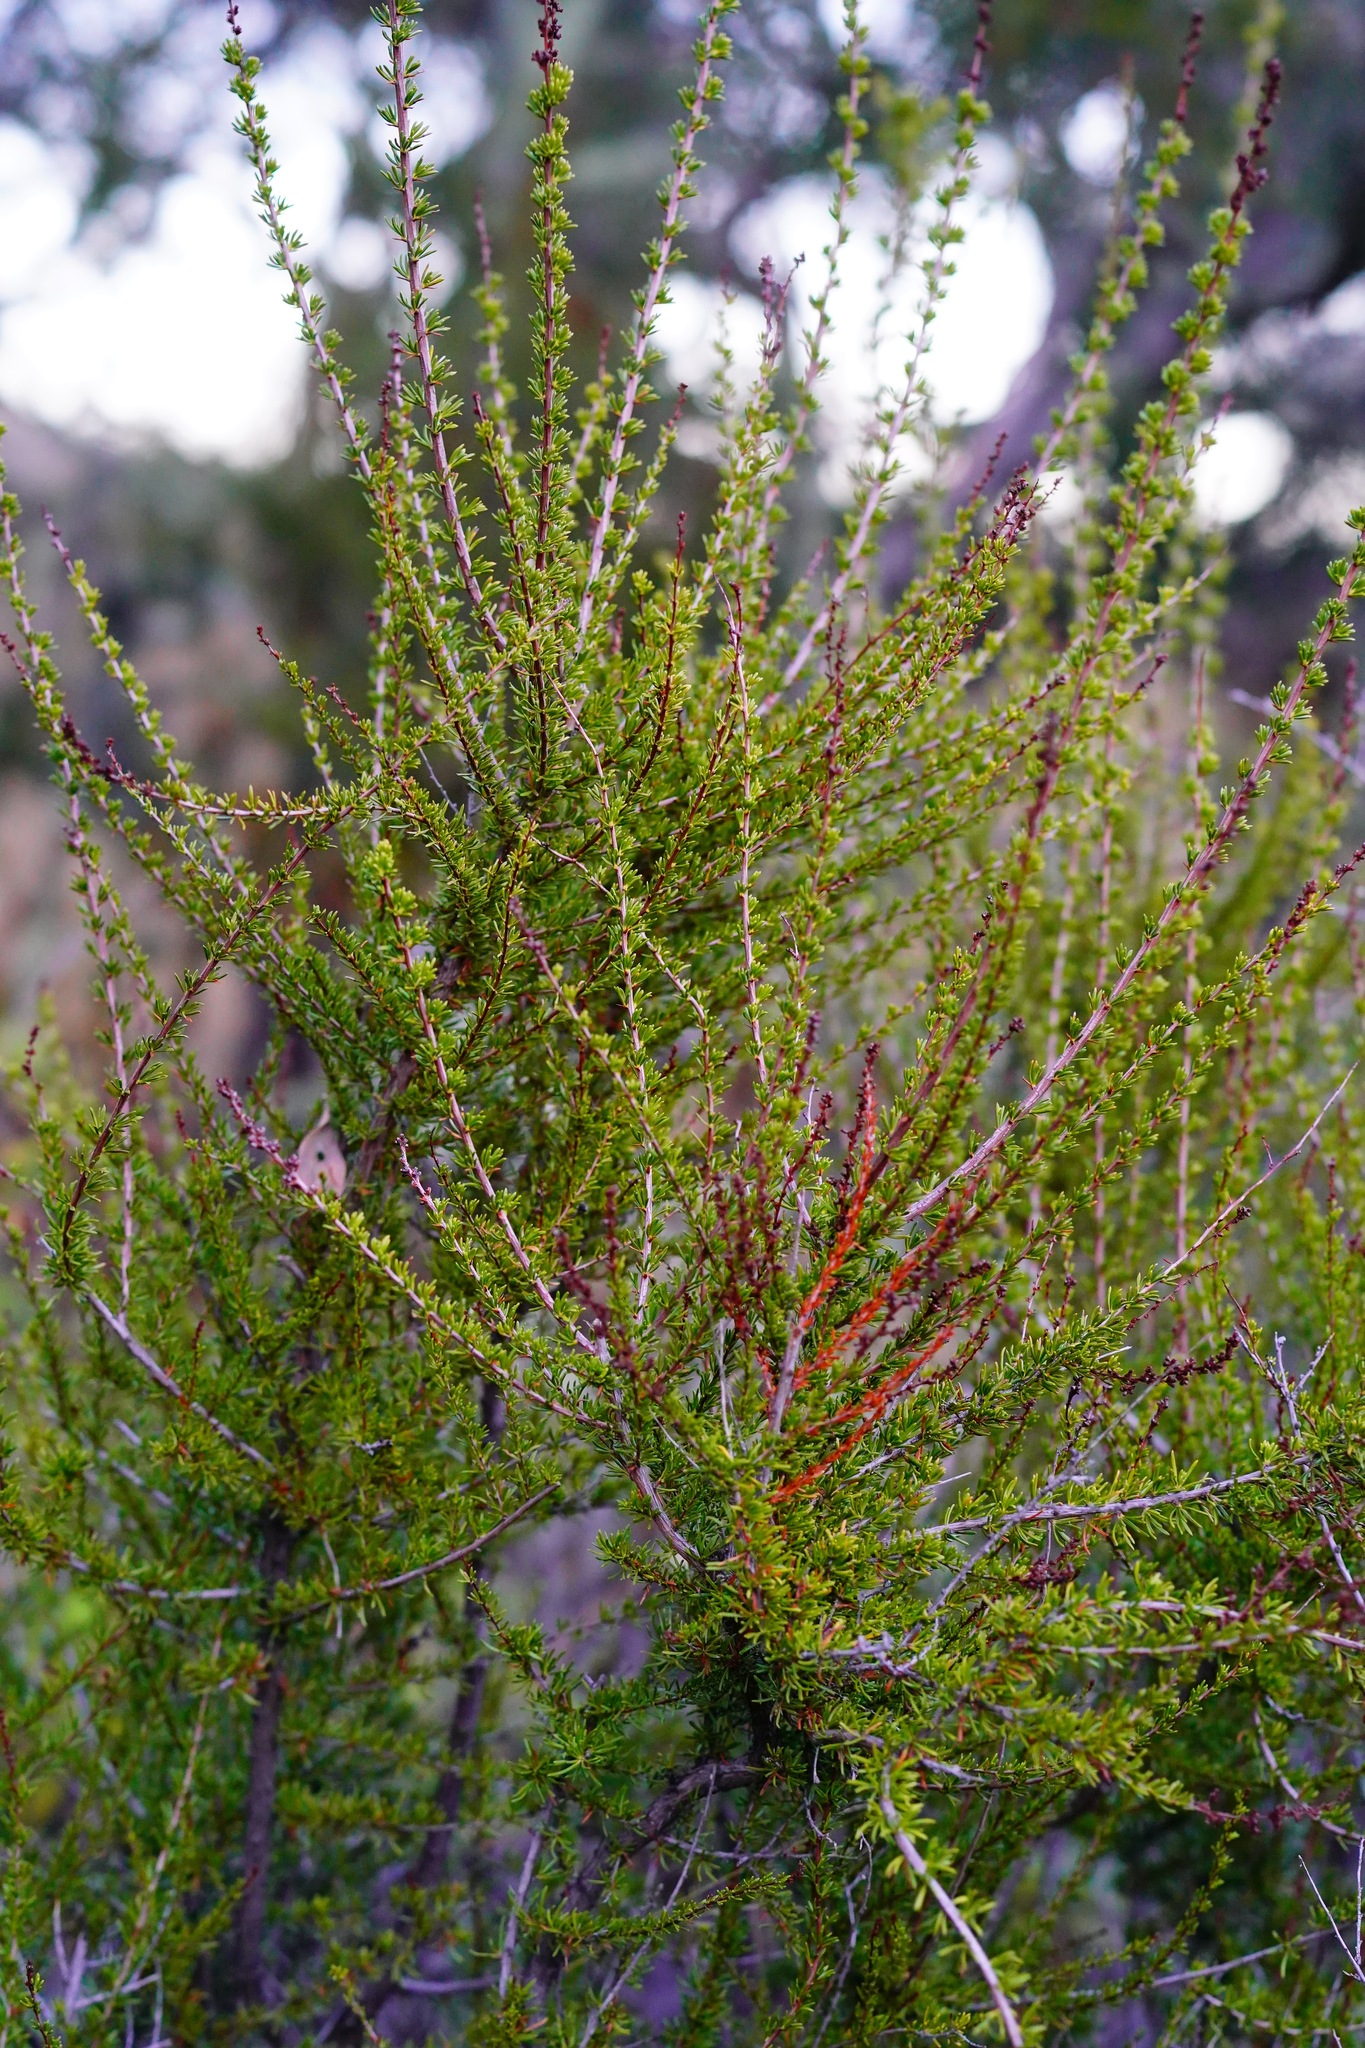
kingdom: Plantae
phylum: Tracheophyta
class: Magnoliopsida
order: Rosales
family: Rosaceae
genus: Adenostoma
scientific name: Adenostoma fasciculatum
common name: Chamise
